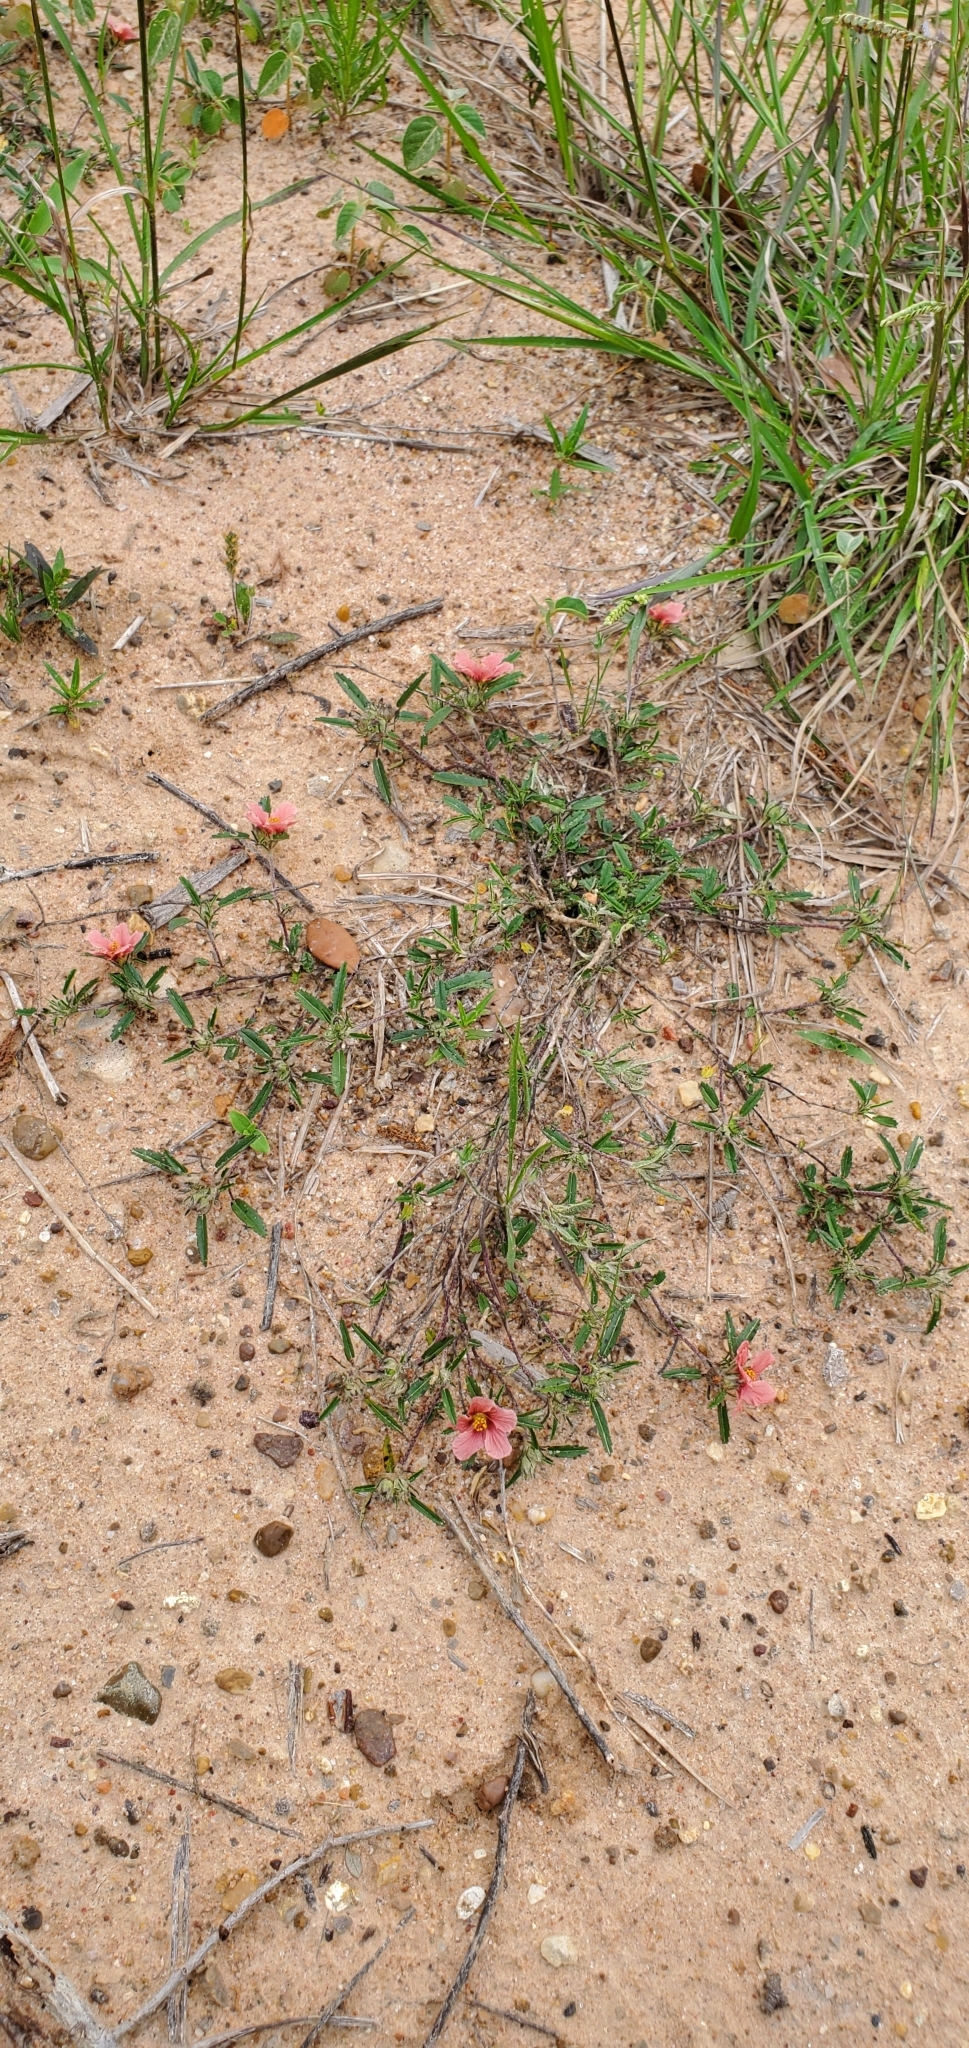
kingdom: Plantae
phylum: Tracheophyta
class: Magnoliopsida
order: Malvales
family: Malvaceae
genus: Sida
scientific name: Sida ciliaris
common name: Bracted fanpetals
